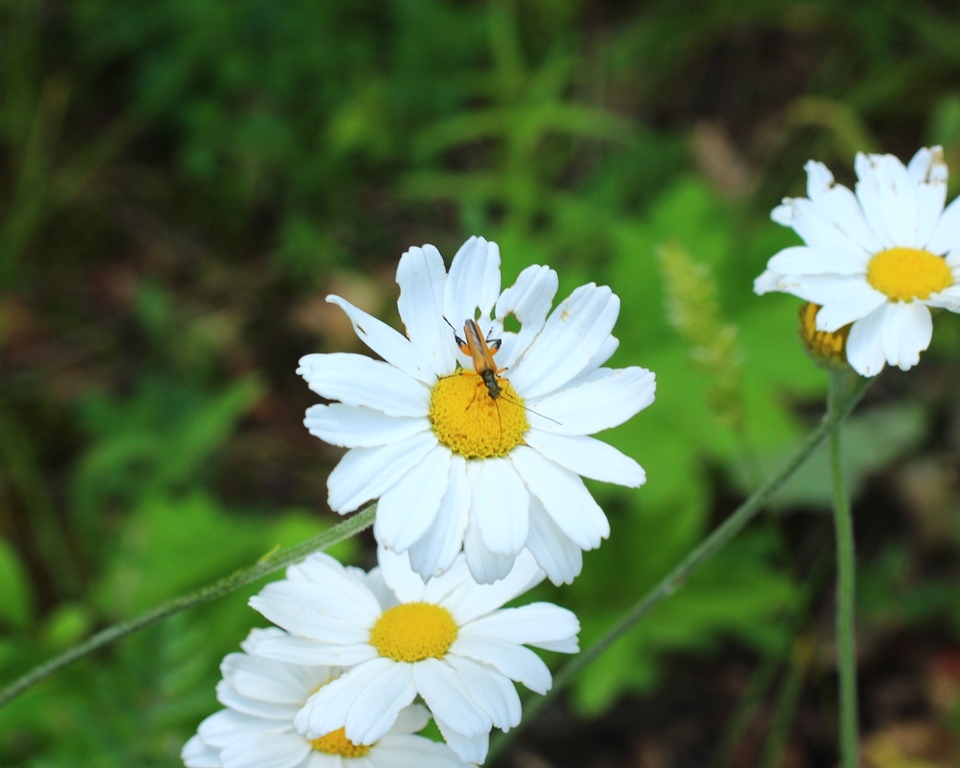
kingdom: Animalia
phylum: Arthropoda
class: Insecta
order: Coleoptera
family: Oedemeridae
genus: Oedemera
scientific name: Oedemera podagrariae
